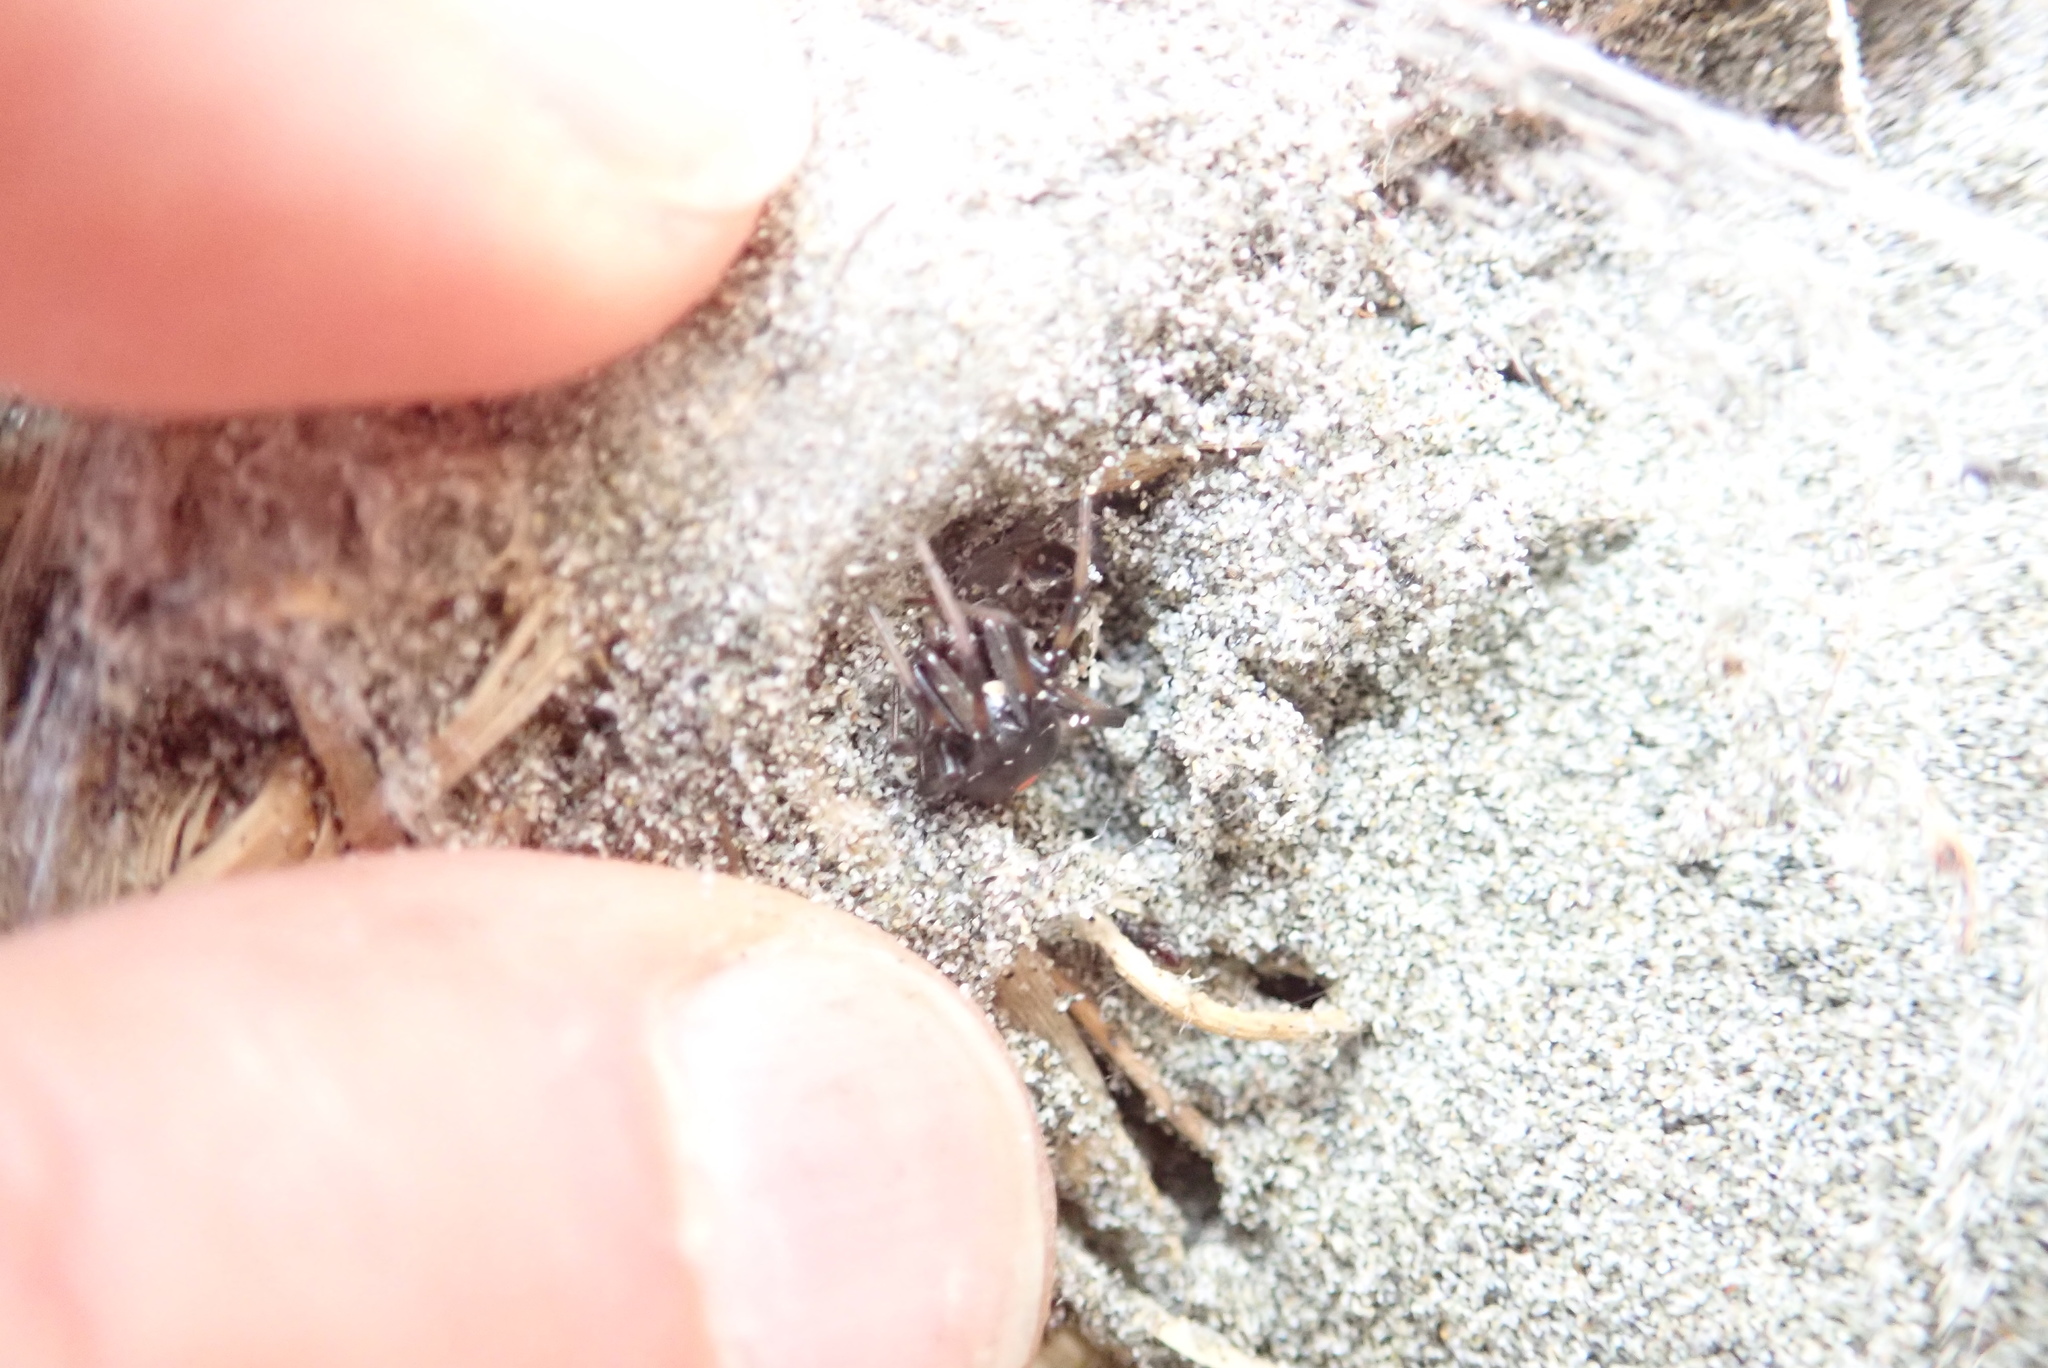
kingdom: Animalia
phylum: Arthropoda
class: Arachnida
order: Araneae
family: Theridiidae
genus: Latrodectus
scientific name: Latrodectus katipo
